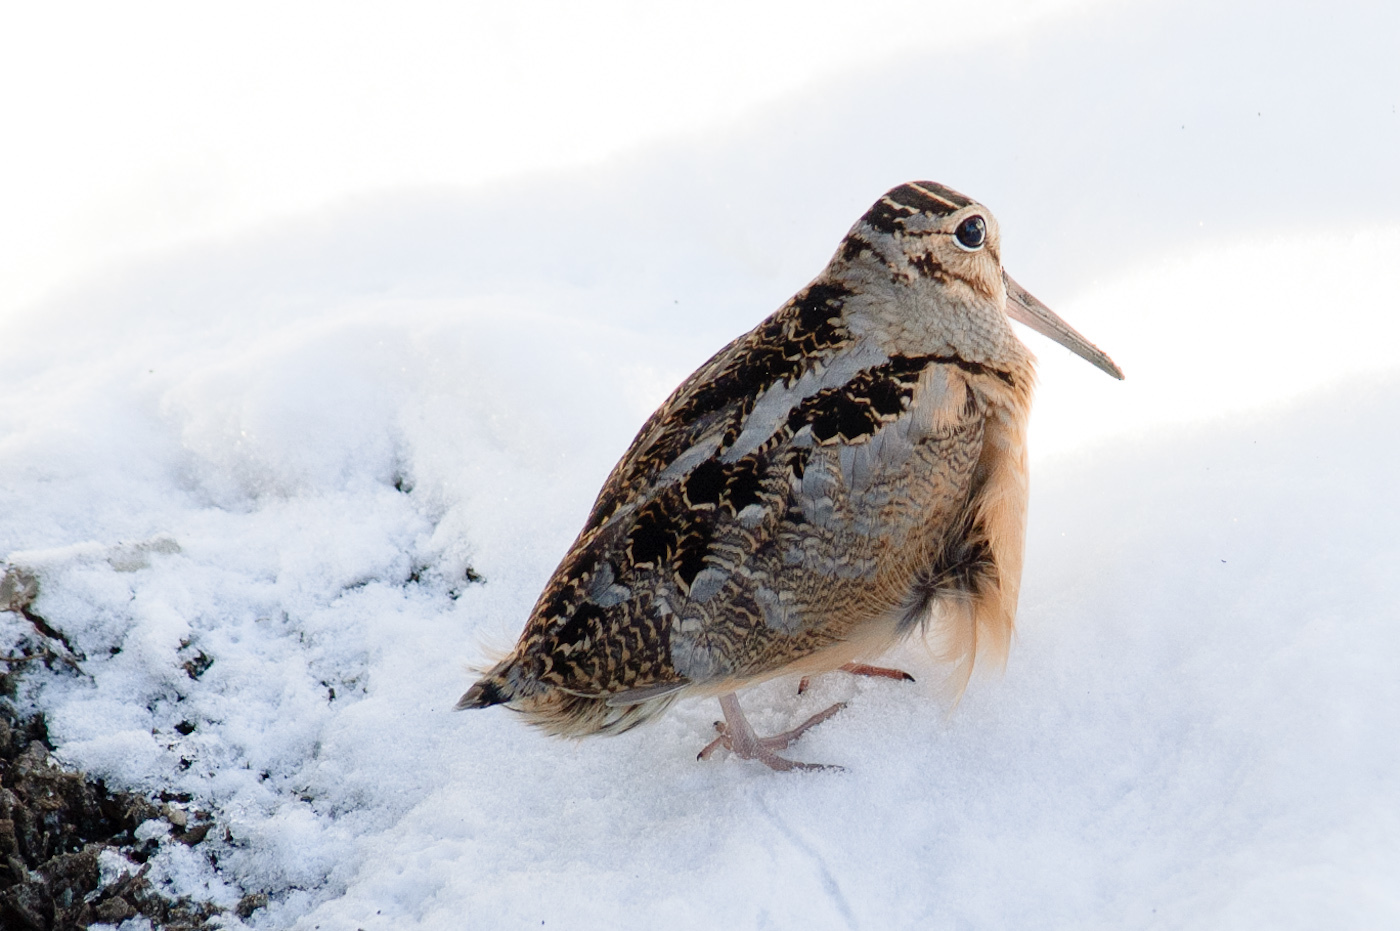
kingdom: Animalia
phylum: Chordata
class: Aves
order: Charadriiformes
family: Scolopacidae
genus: Scolopax
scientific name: Scolopax minor
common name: American woodcock
